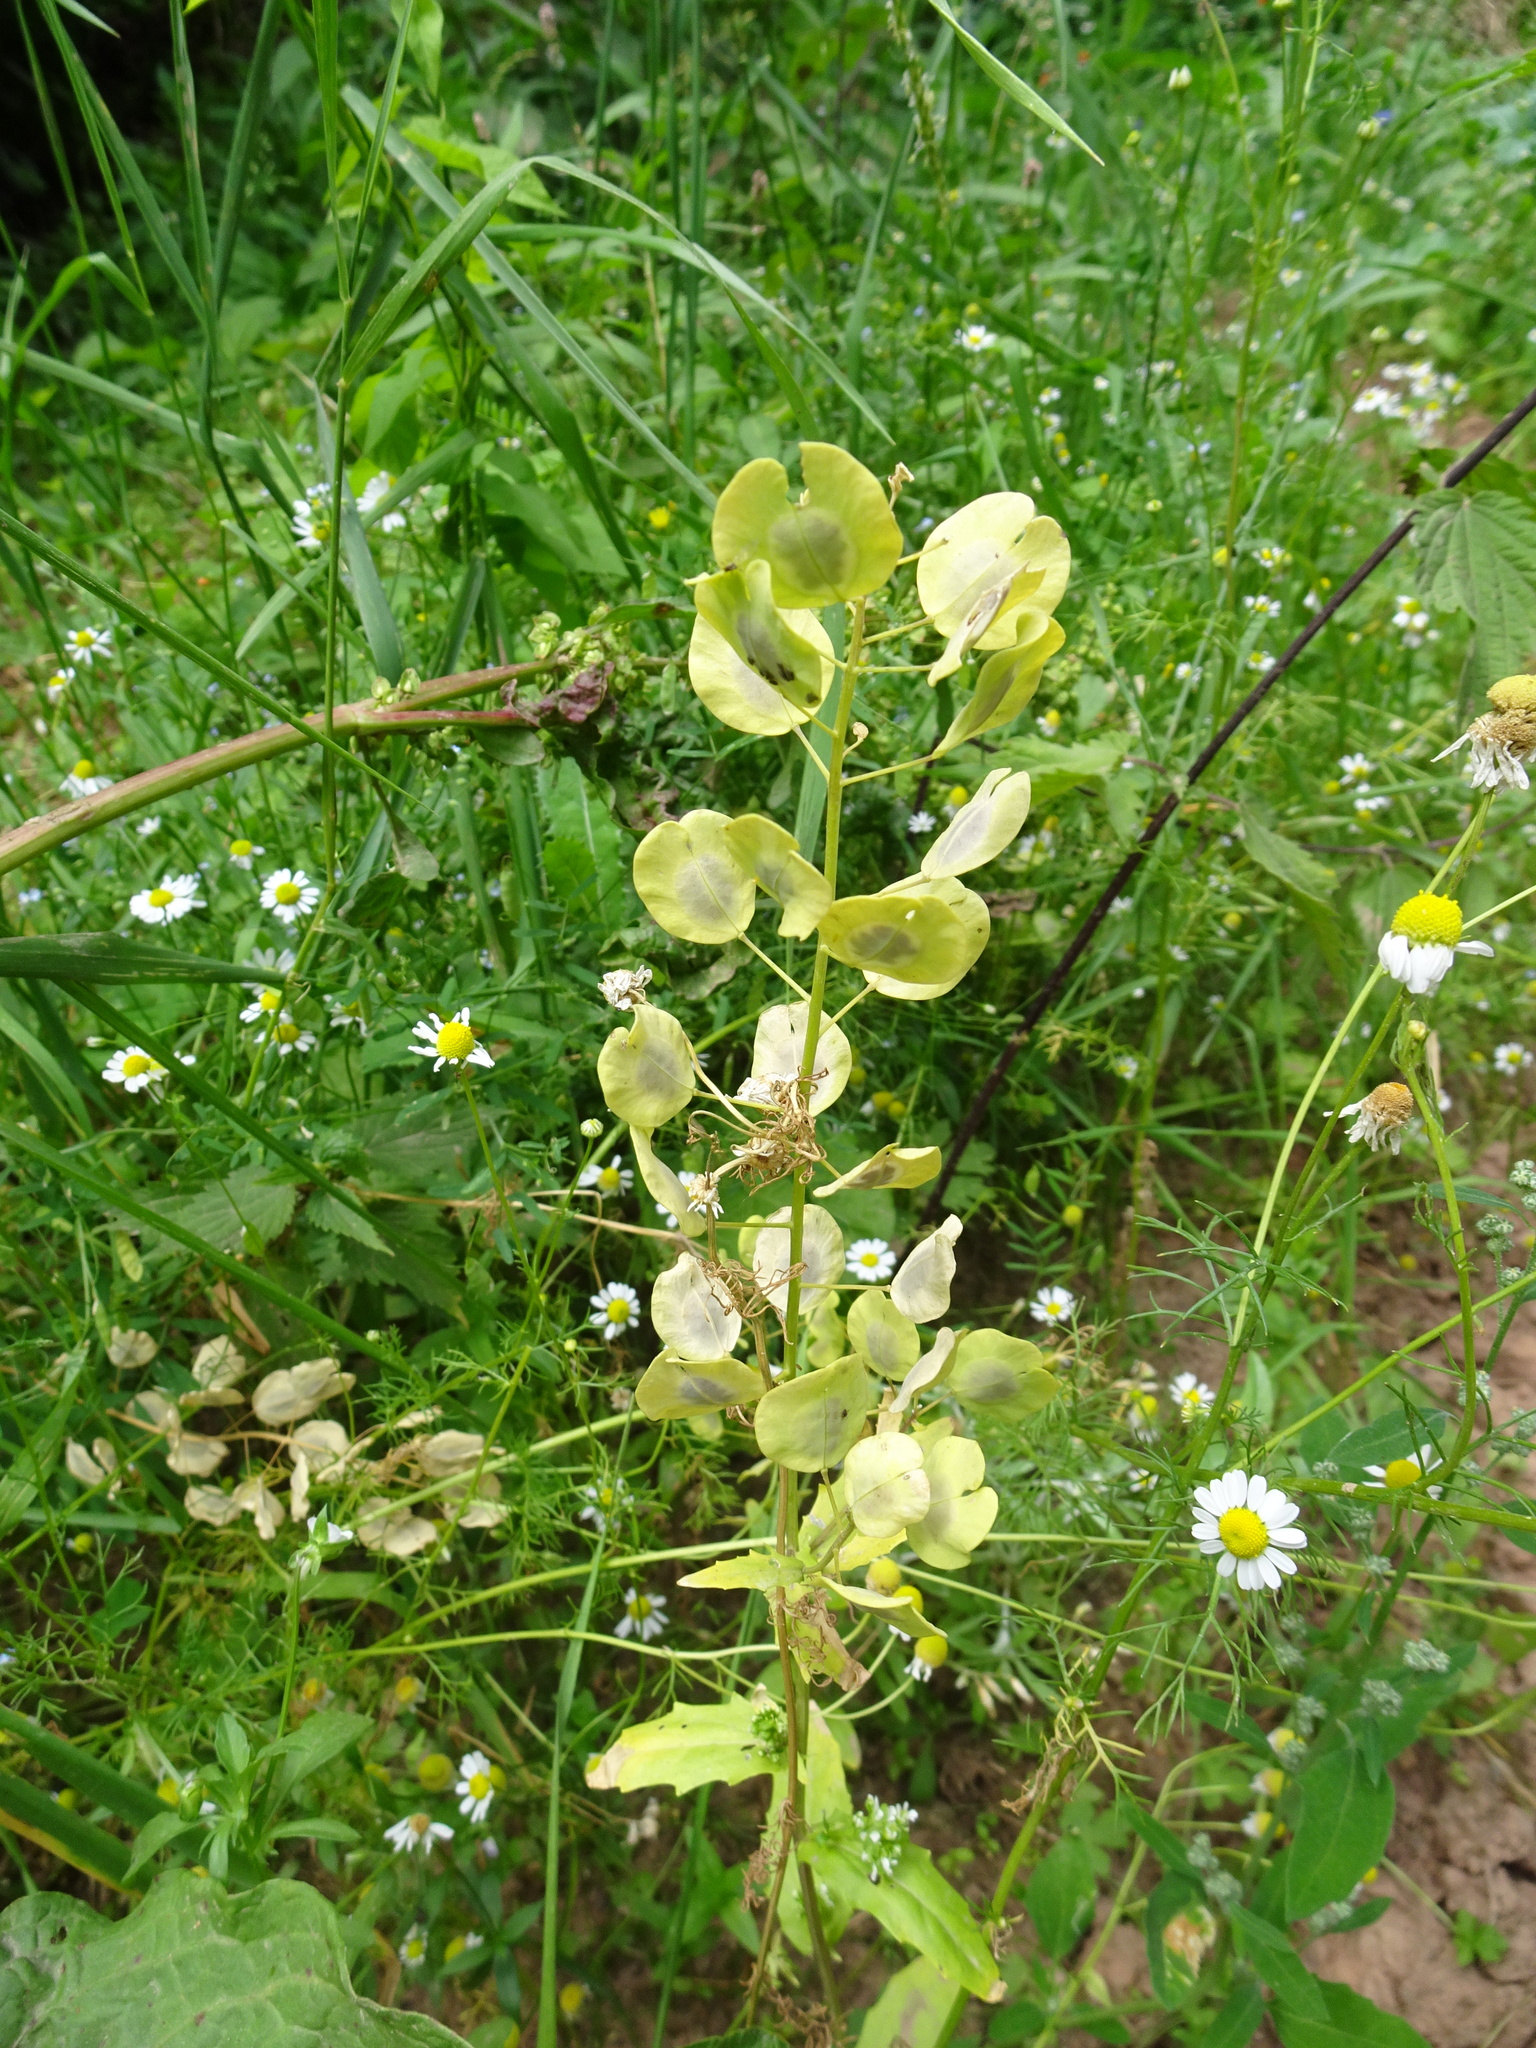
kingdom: Plantae
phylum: Tracheophyta
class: Magnoliopsida
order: Brassicales
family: Brassicaceae
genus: Thlaspi
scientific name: Thlaspi arvense
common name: Field pennycress
